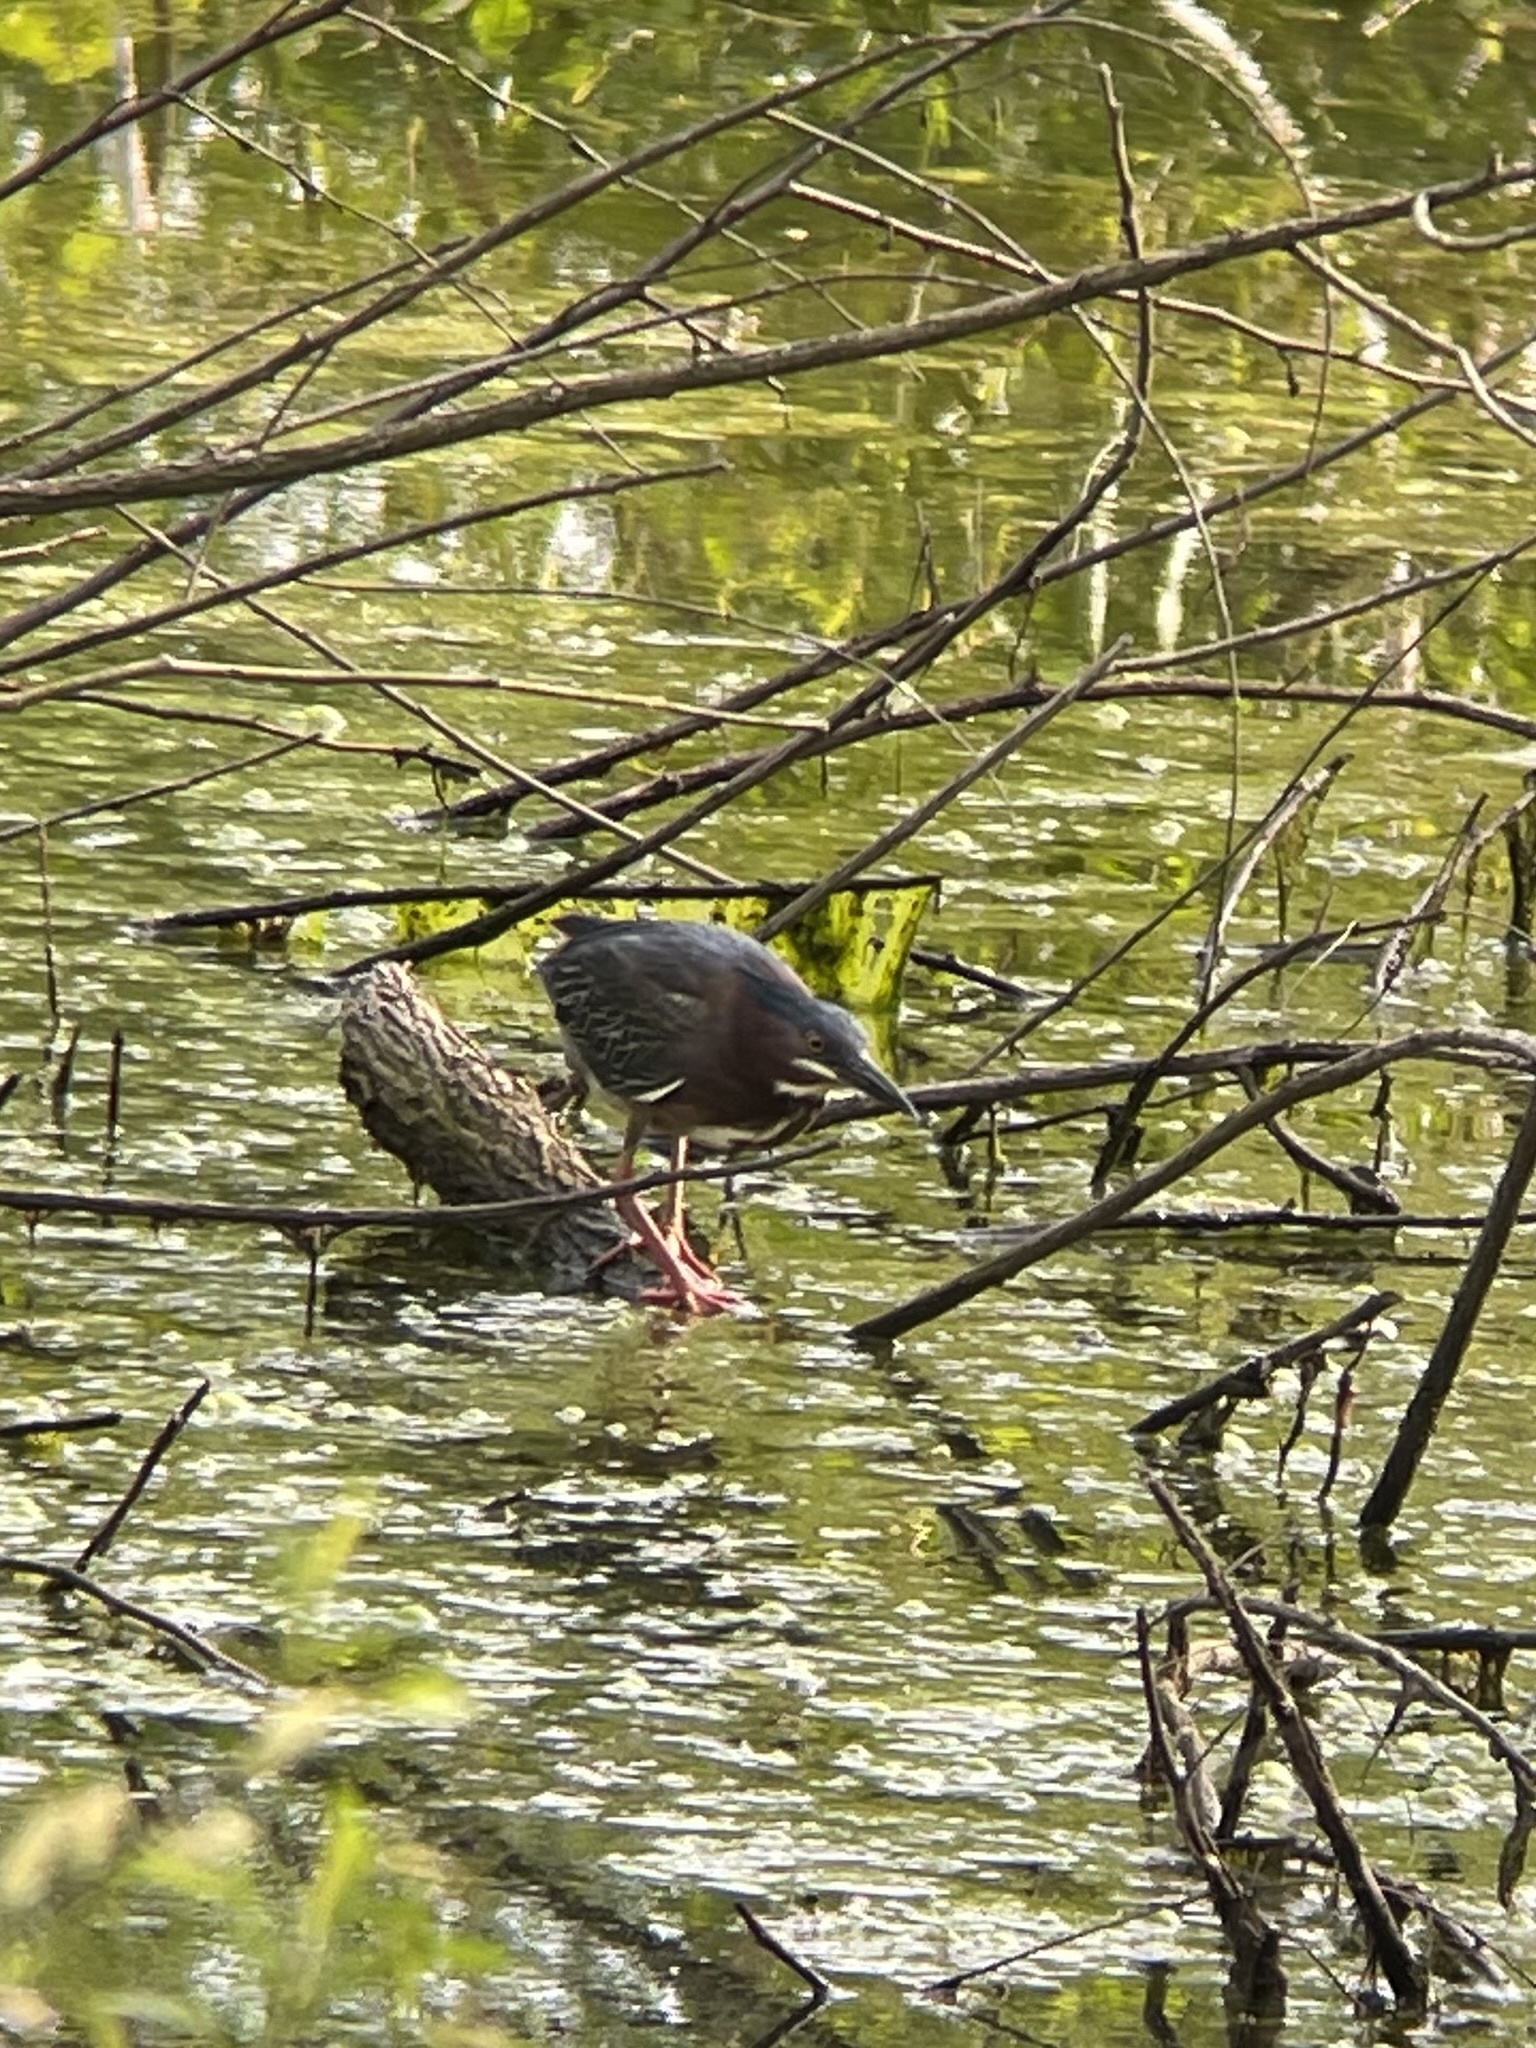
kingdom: Animalia
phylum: Chordata
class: Aves
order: Pelecaniformes
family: Ardeidae
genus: Butorides
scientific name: Butorides virescens
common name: Green heron
